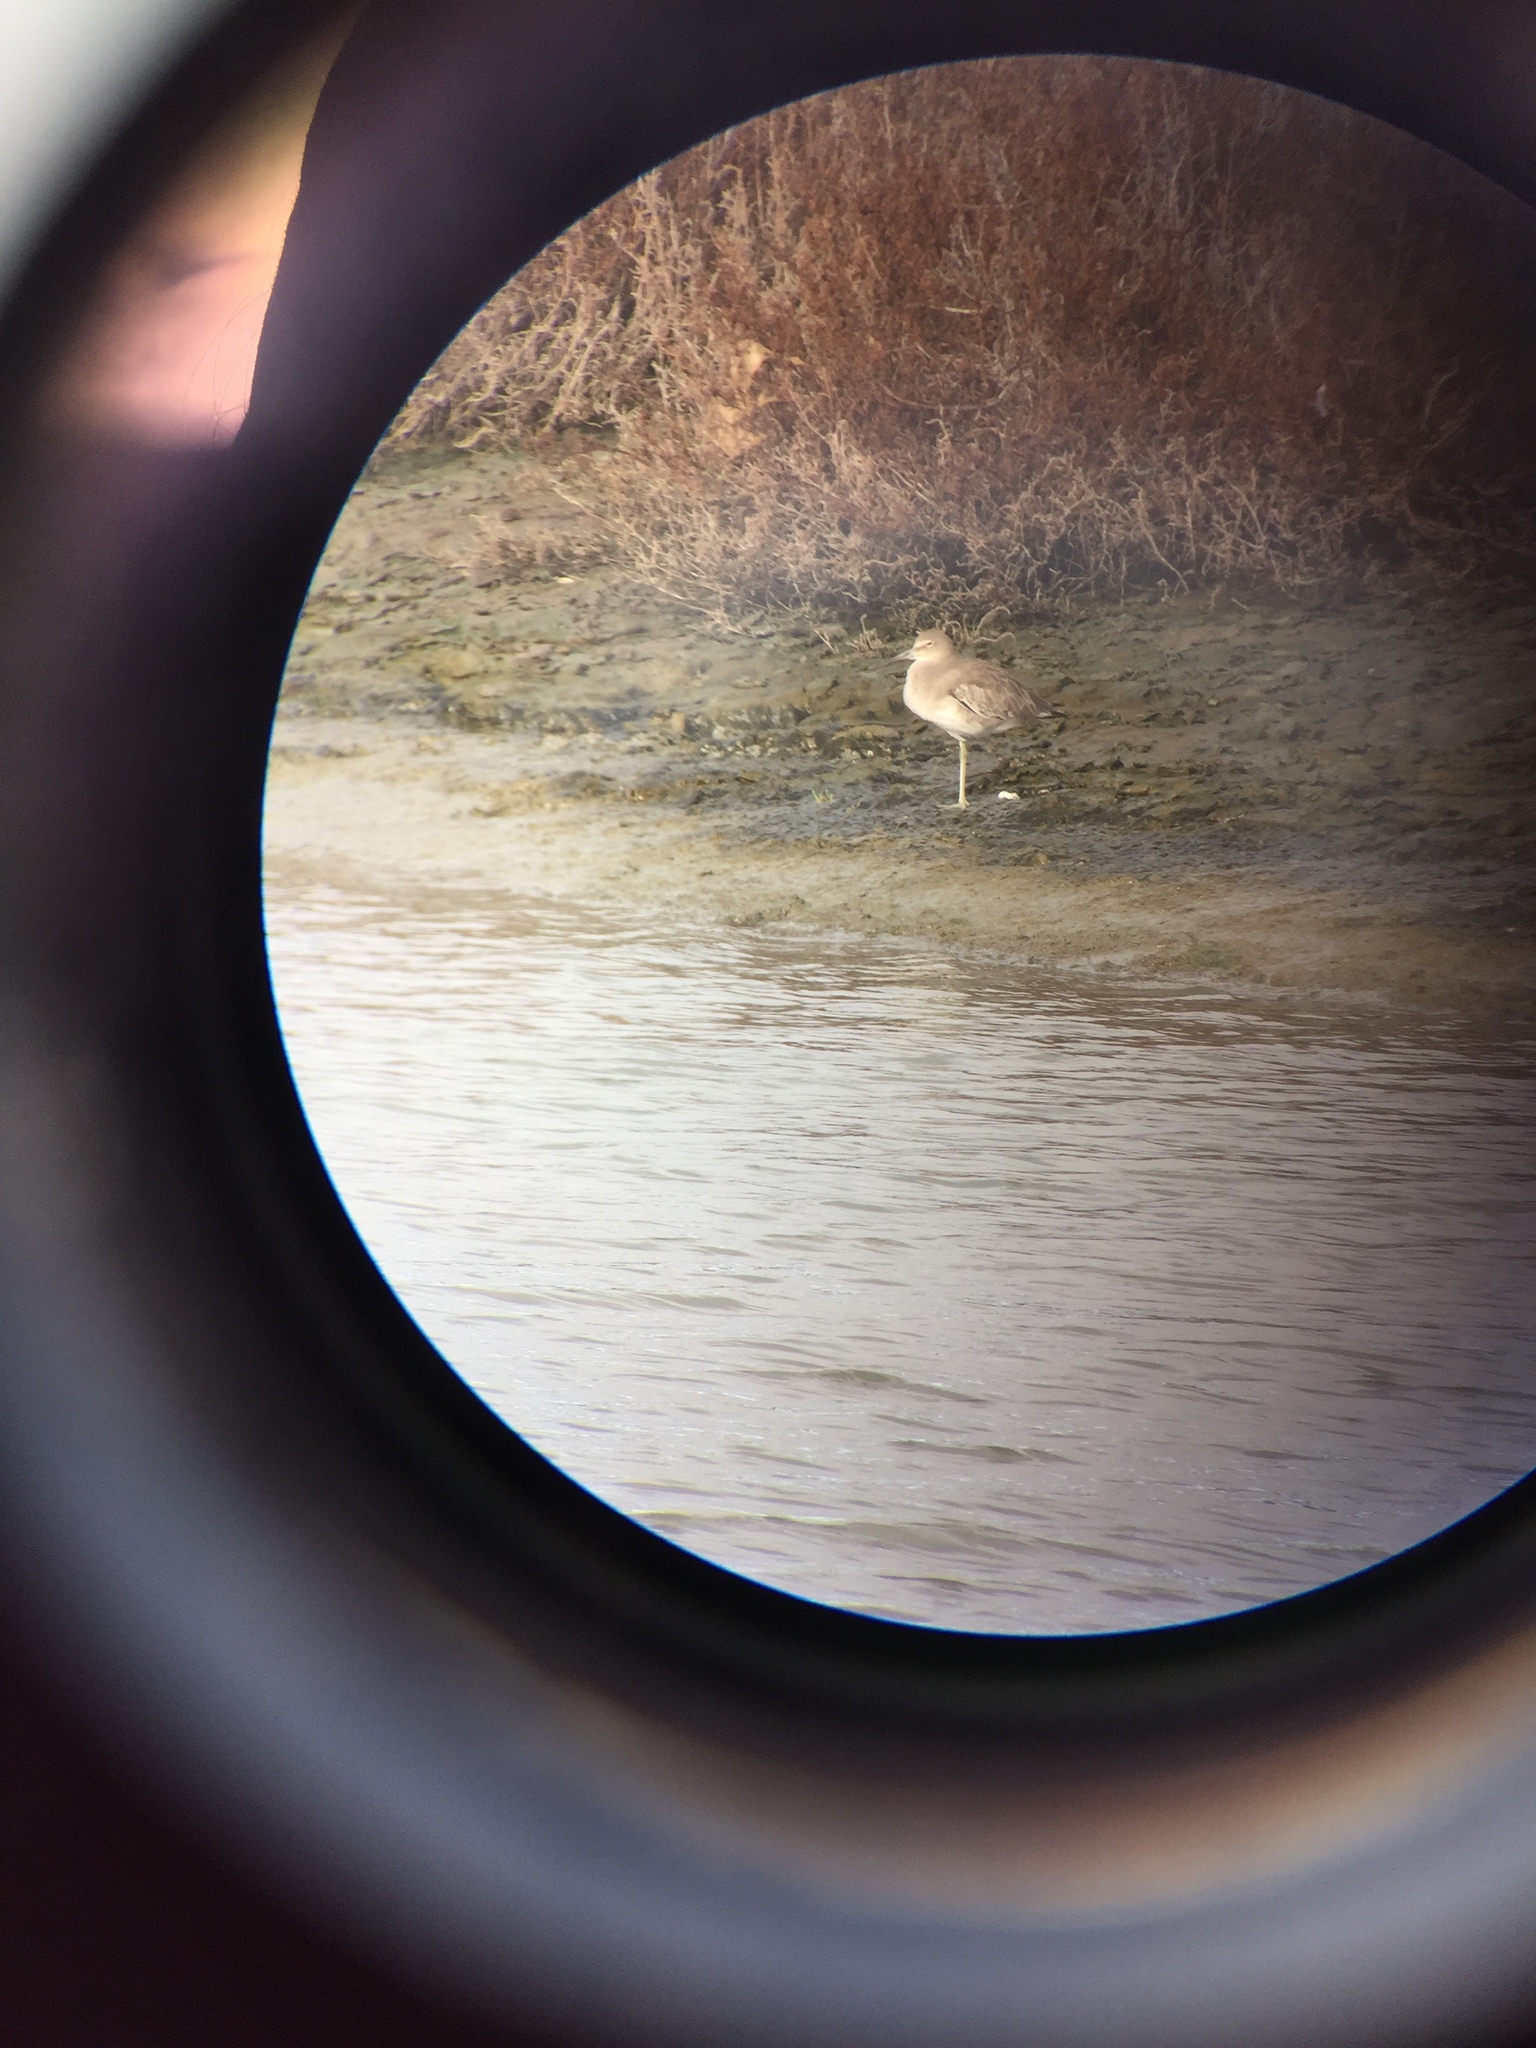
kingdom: Animalia
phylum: Chordata
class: Aves
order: Charadriiformes
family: Scolopacidae
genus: Tringa
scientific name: Tringa semipalmata
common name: Willet
